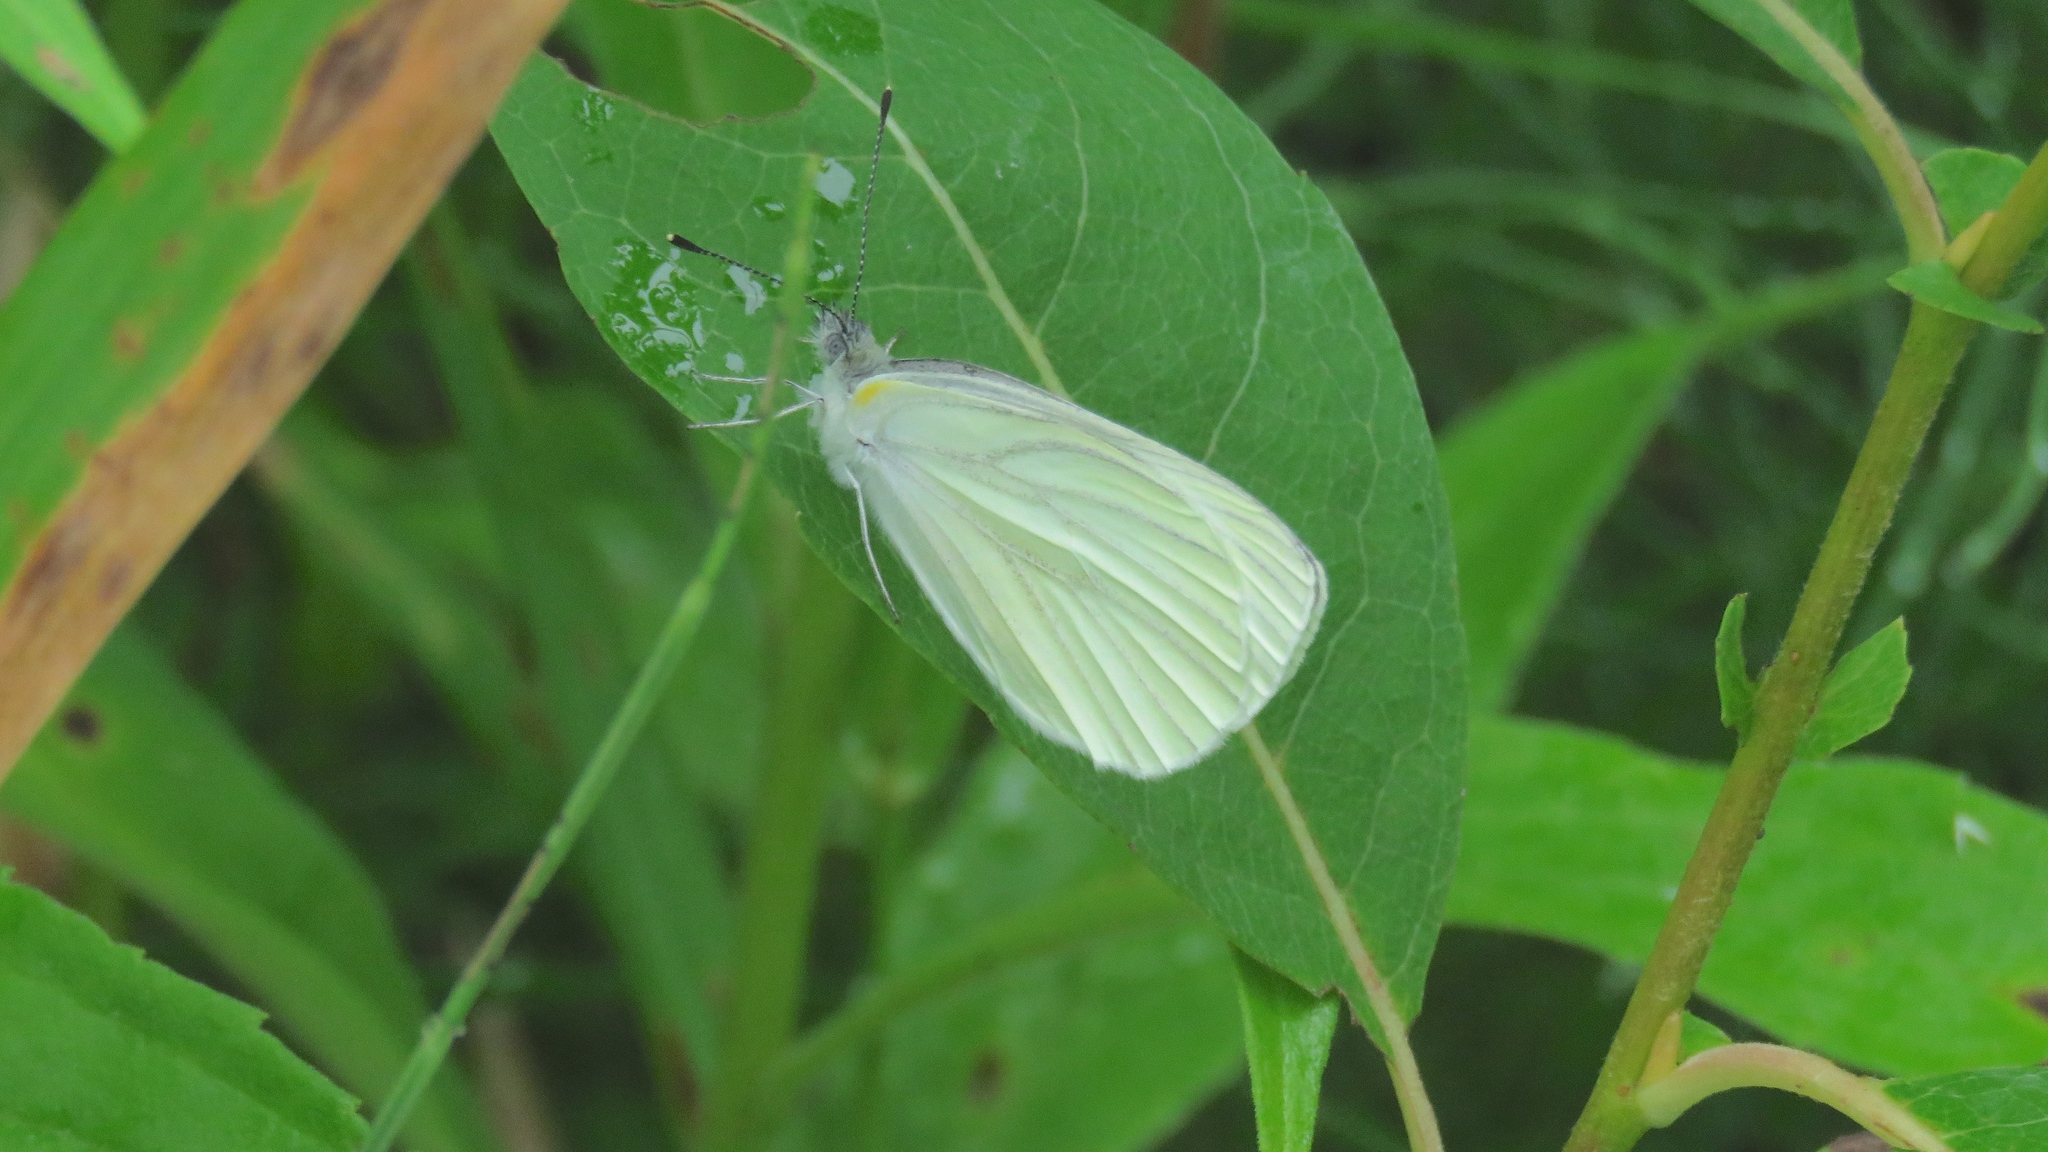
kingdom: Animalia
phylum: Arthropoda
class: Insecta
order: Lepidoptera
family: Pieridae
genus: Pieris
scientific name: Pieris oleracea
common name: Mustard white
